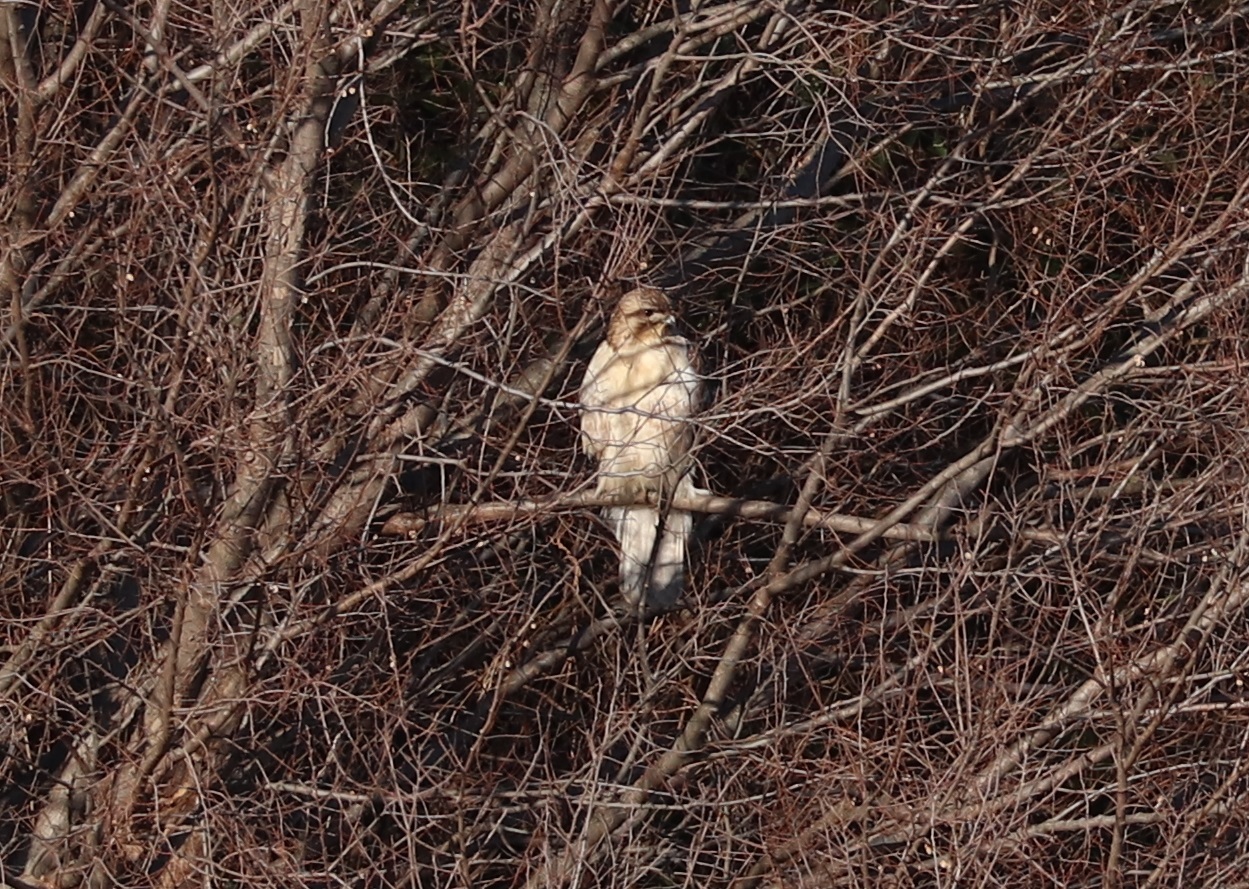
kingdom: Animalia
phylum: Chordata
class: Aves
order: Accipitriformes
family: Accipitridae
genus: Buteo
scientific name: Buteo japonicus
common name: Eastern buzzard
